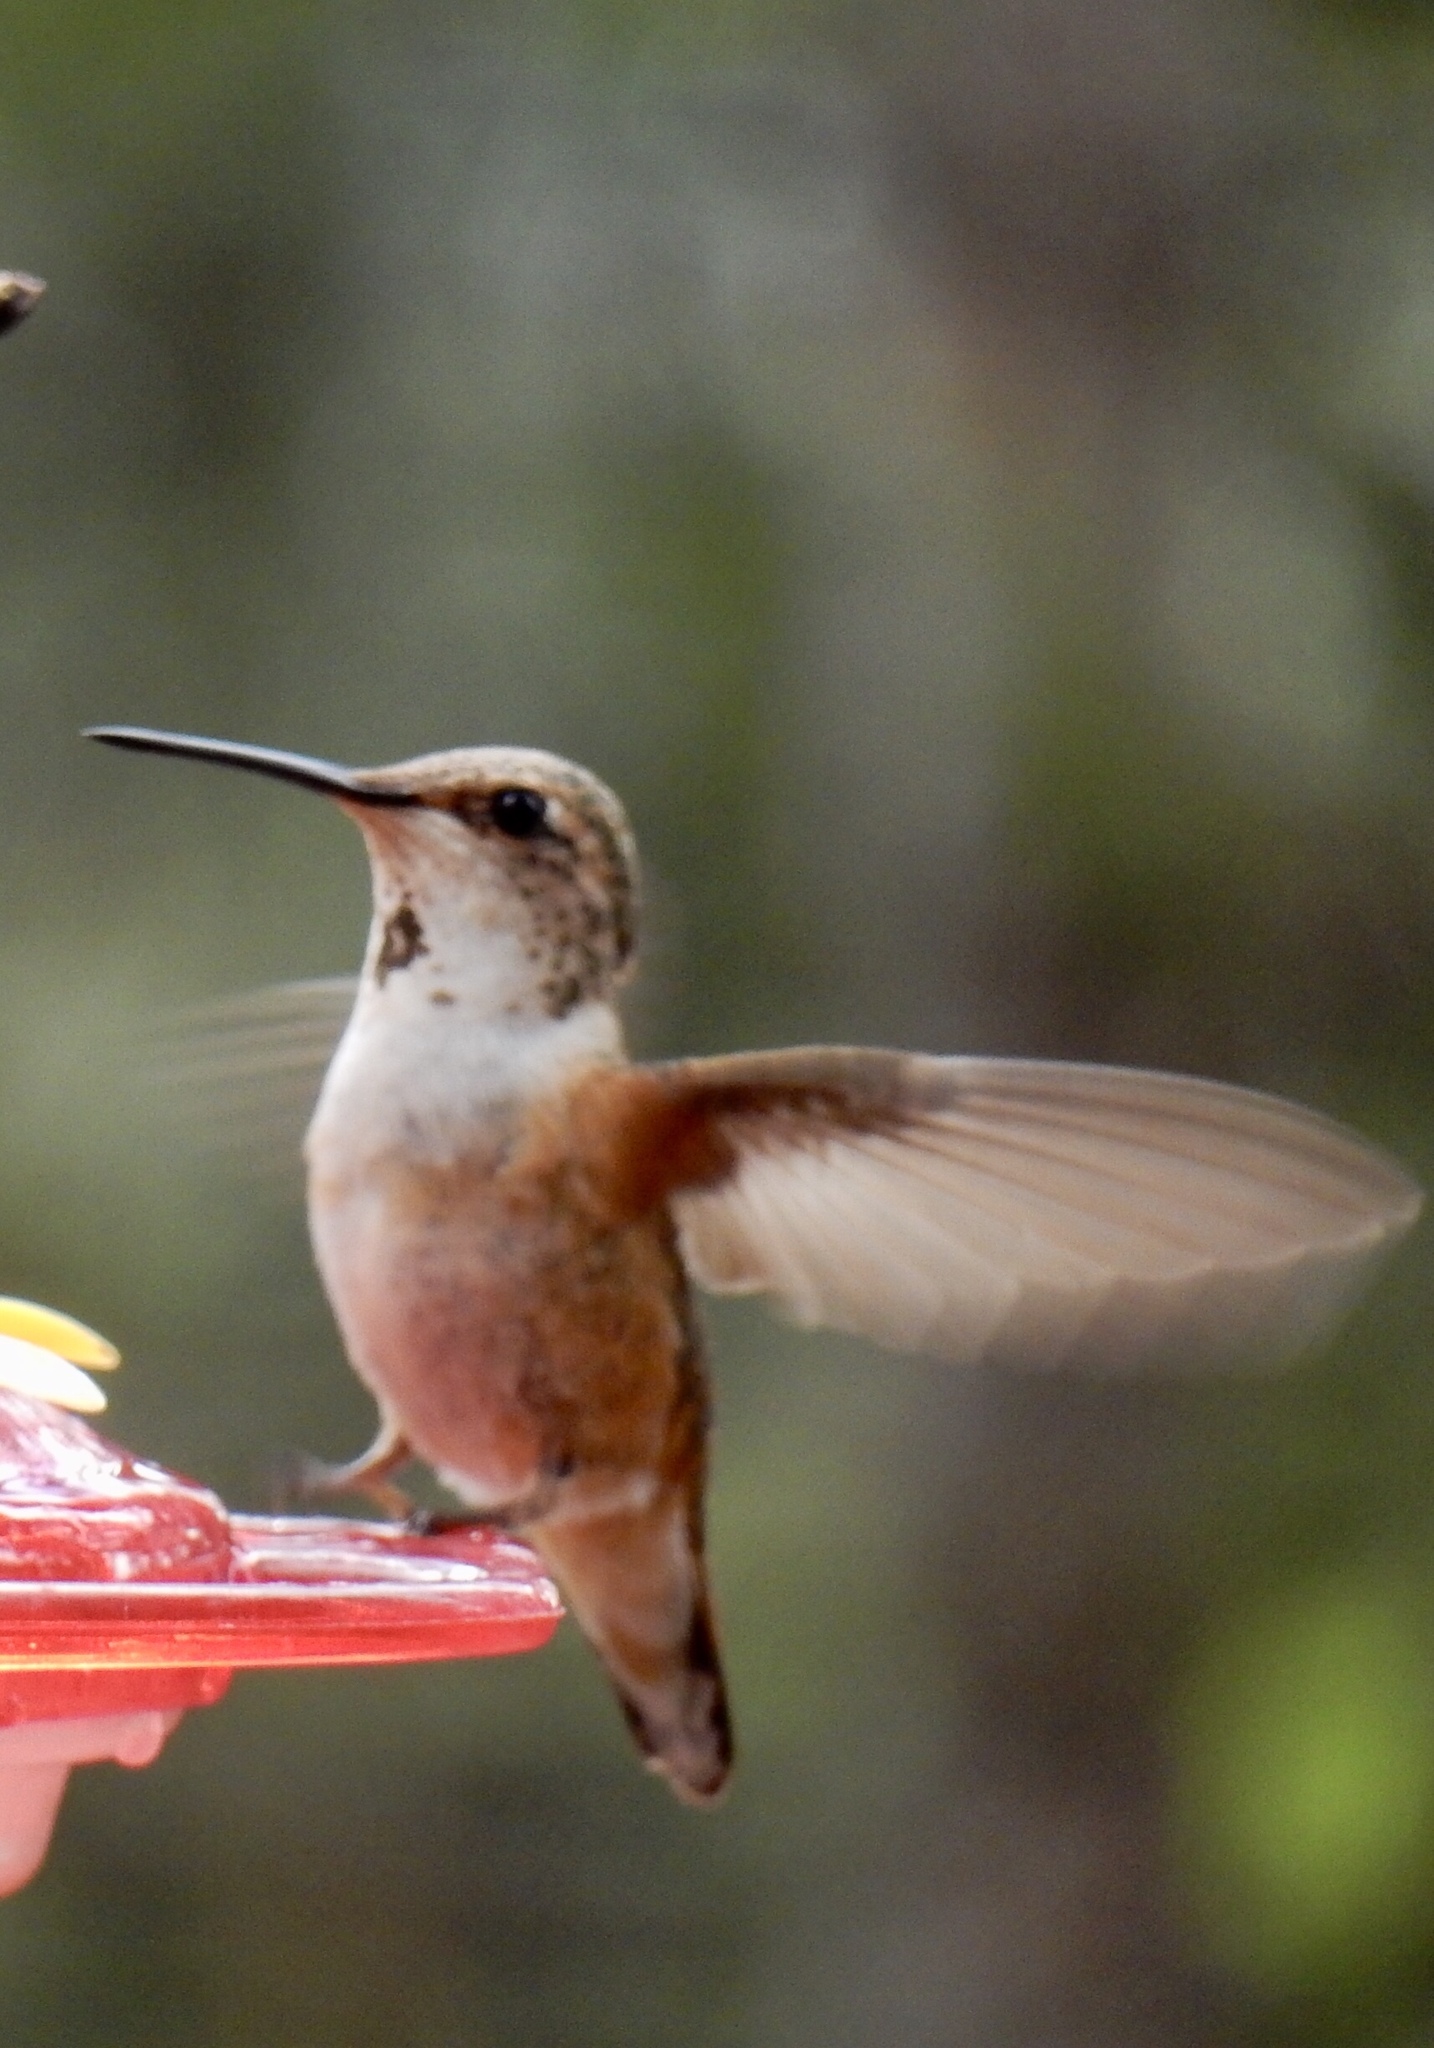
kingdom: Animalia
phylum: Chordata
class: Aves
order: Apodiformes
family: Trochilidae
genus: Selasphorus
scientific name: Selasphorus rufus
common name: Rufous hummingbird
